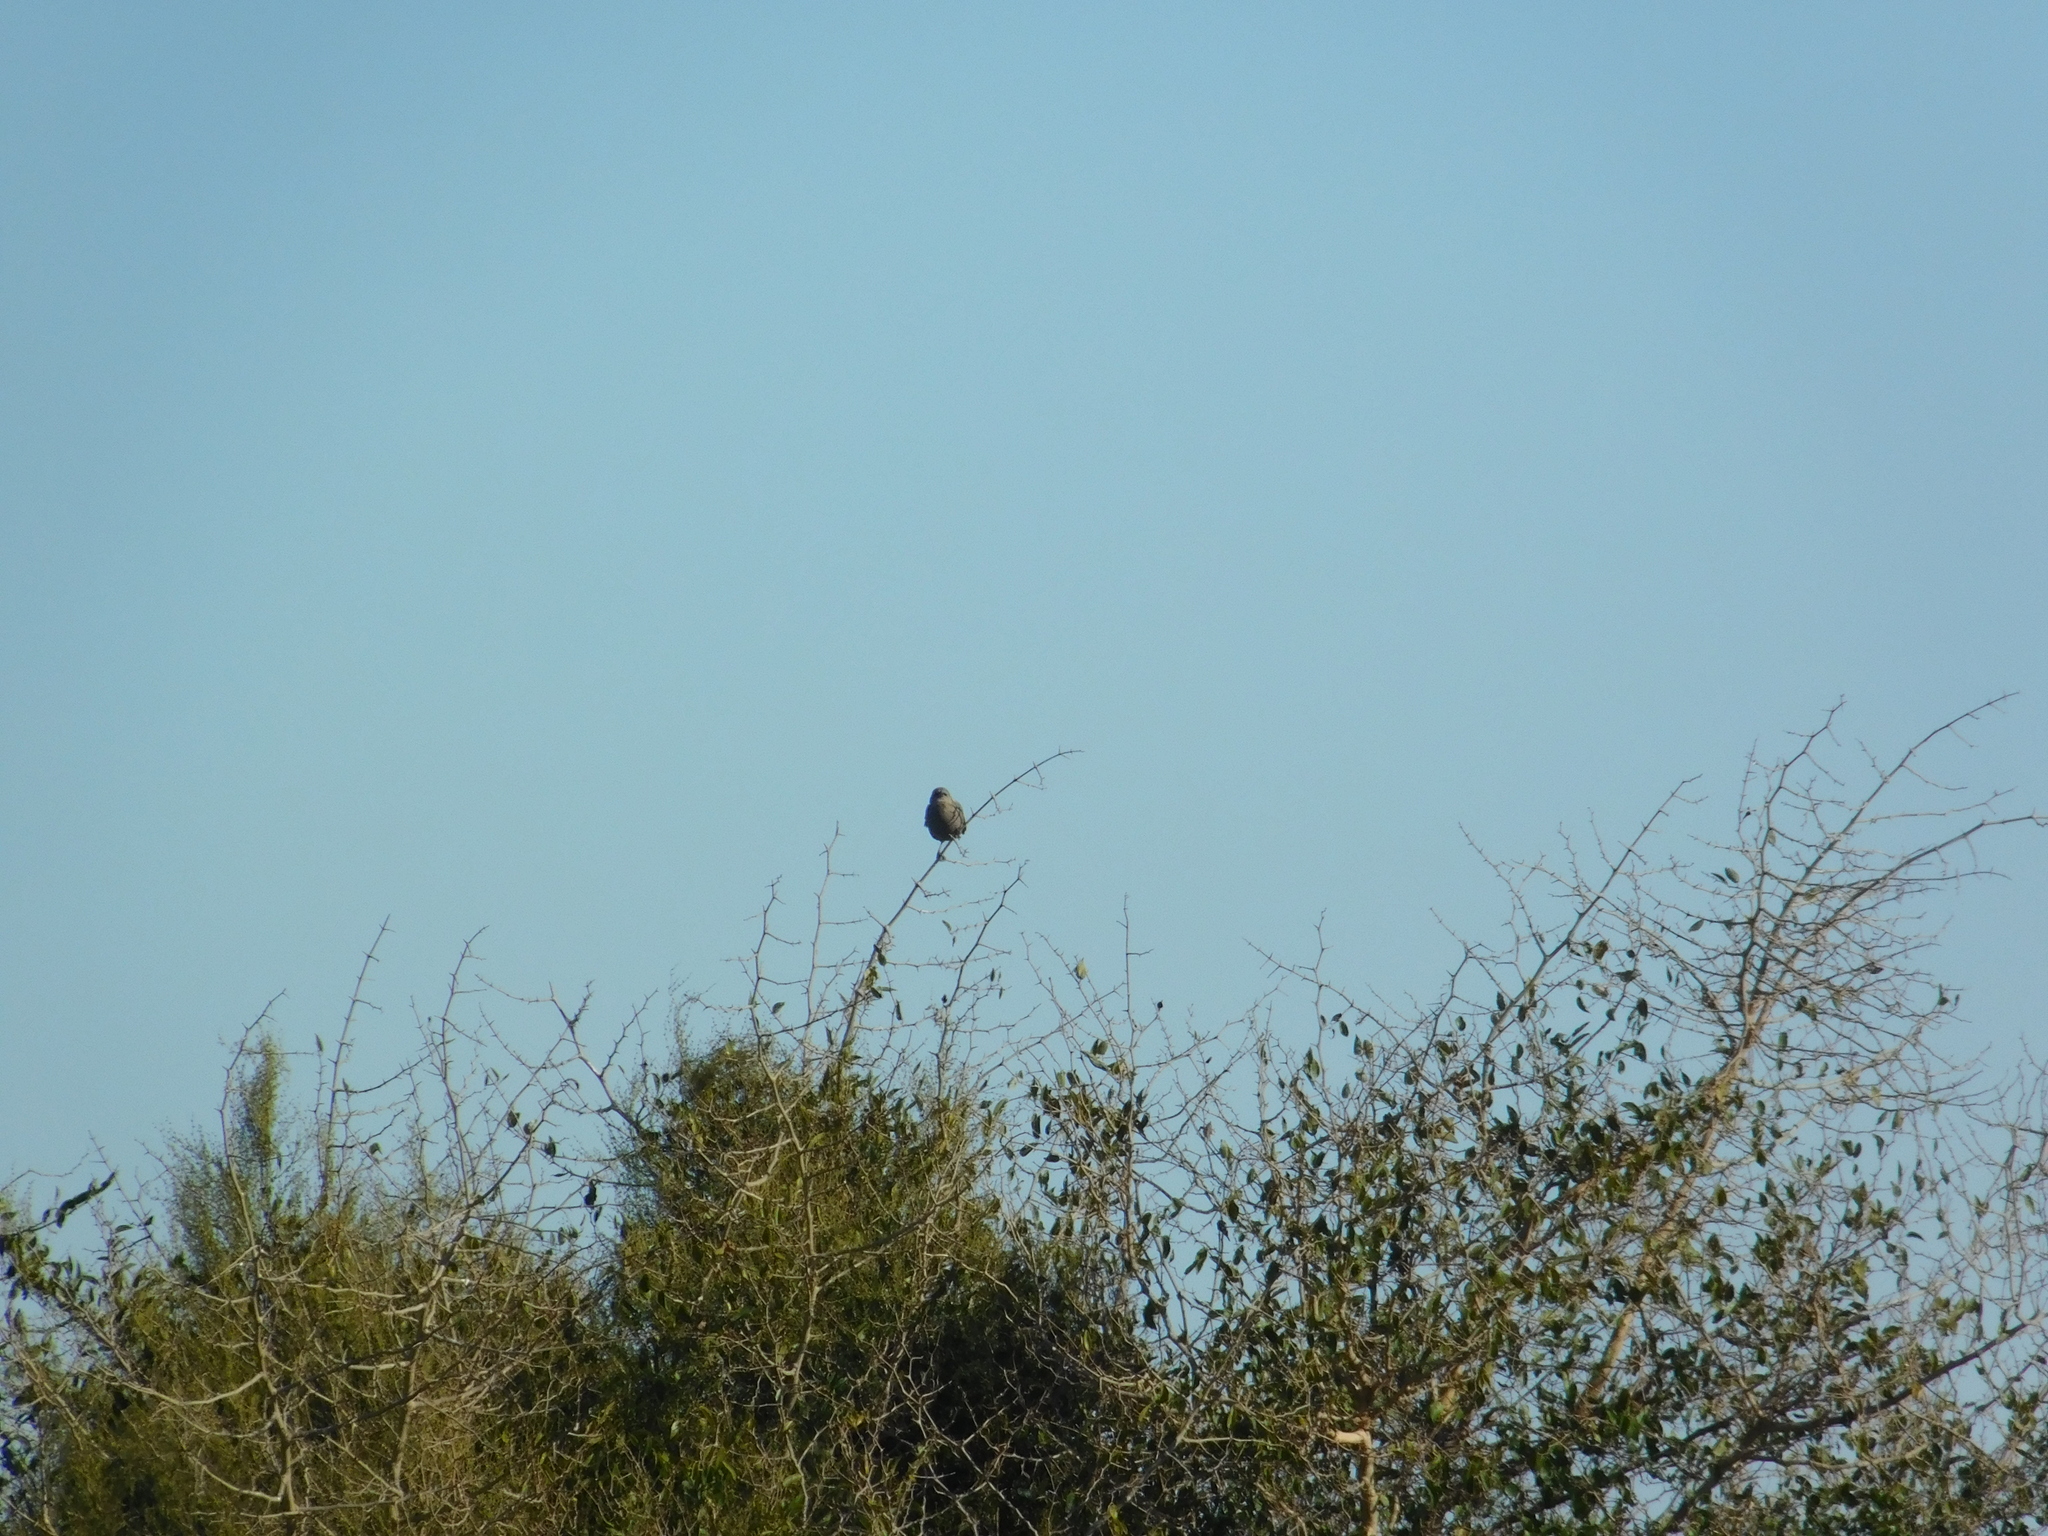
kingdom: Animalia
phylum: Chordata
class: Aves
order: Passeriformes
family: Icteridae
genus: Agelaioides
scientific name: Agelaioides badius
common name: Baywing
